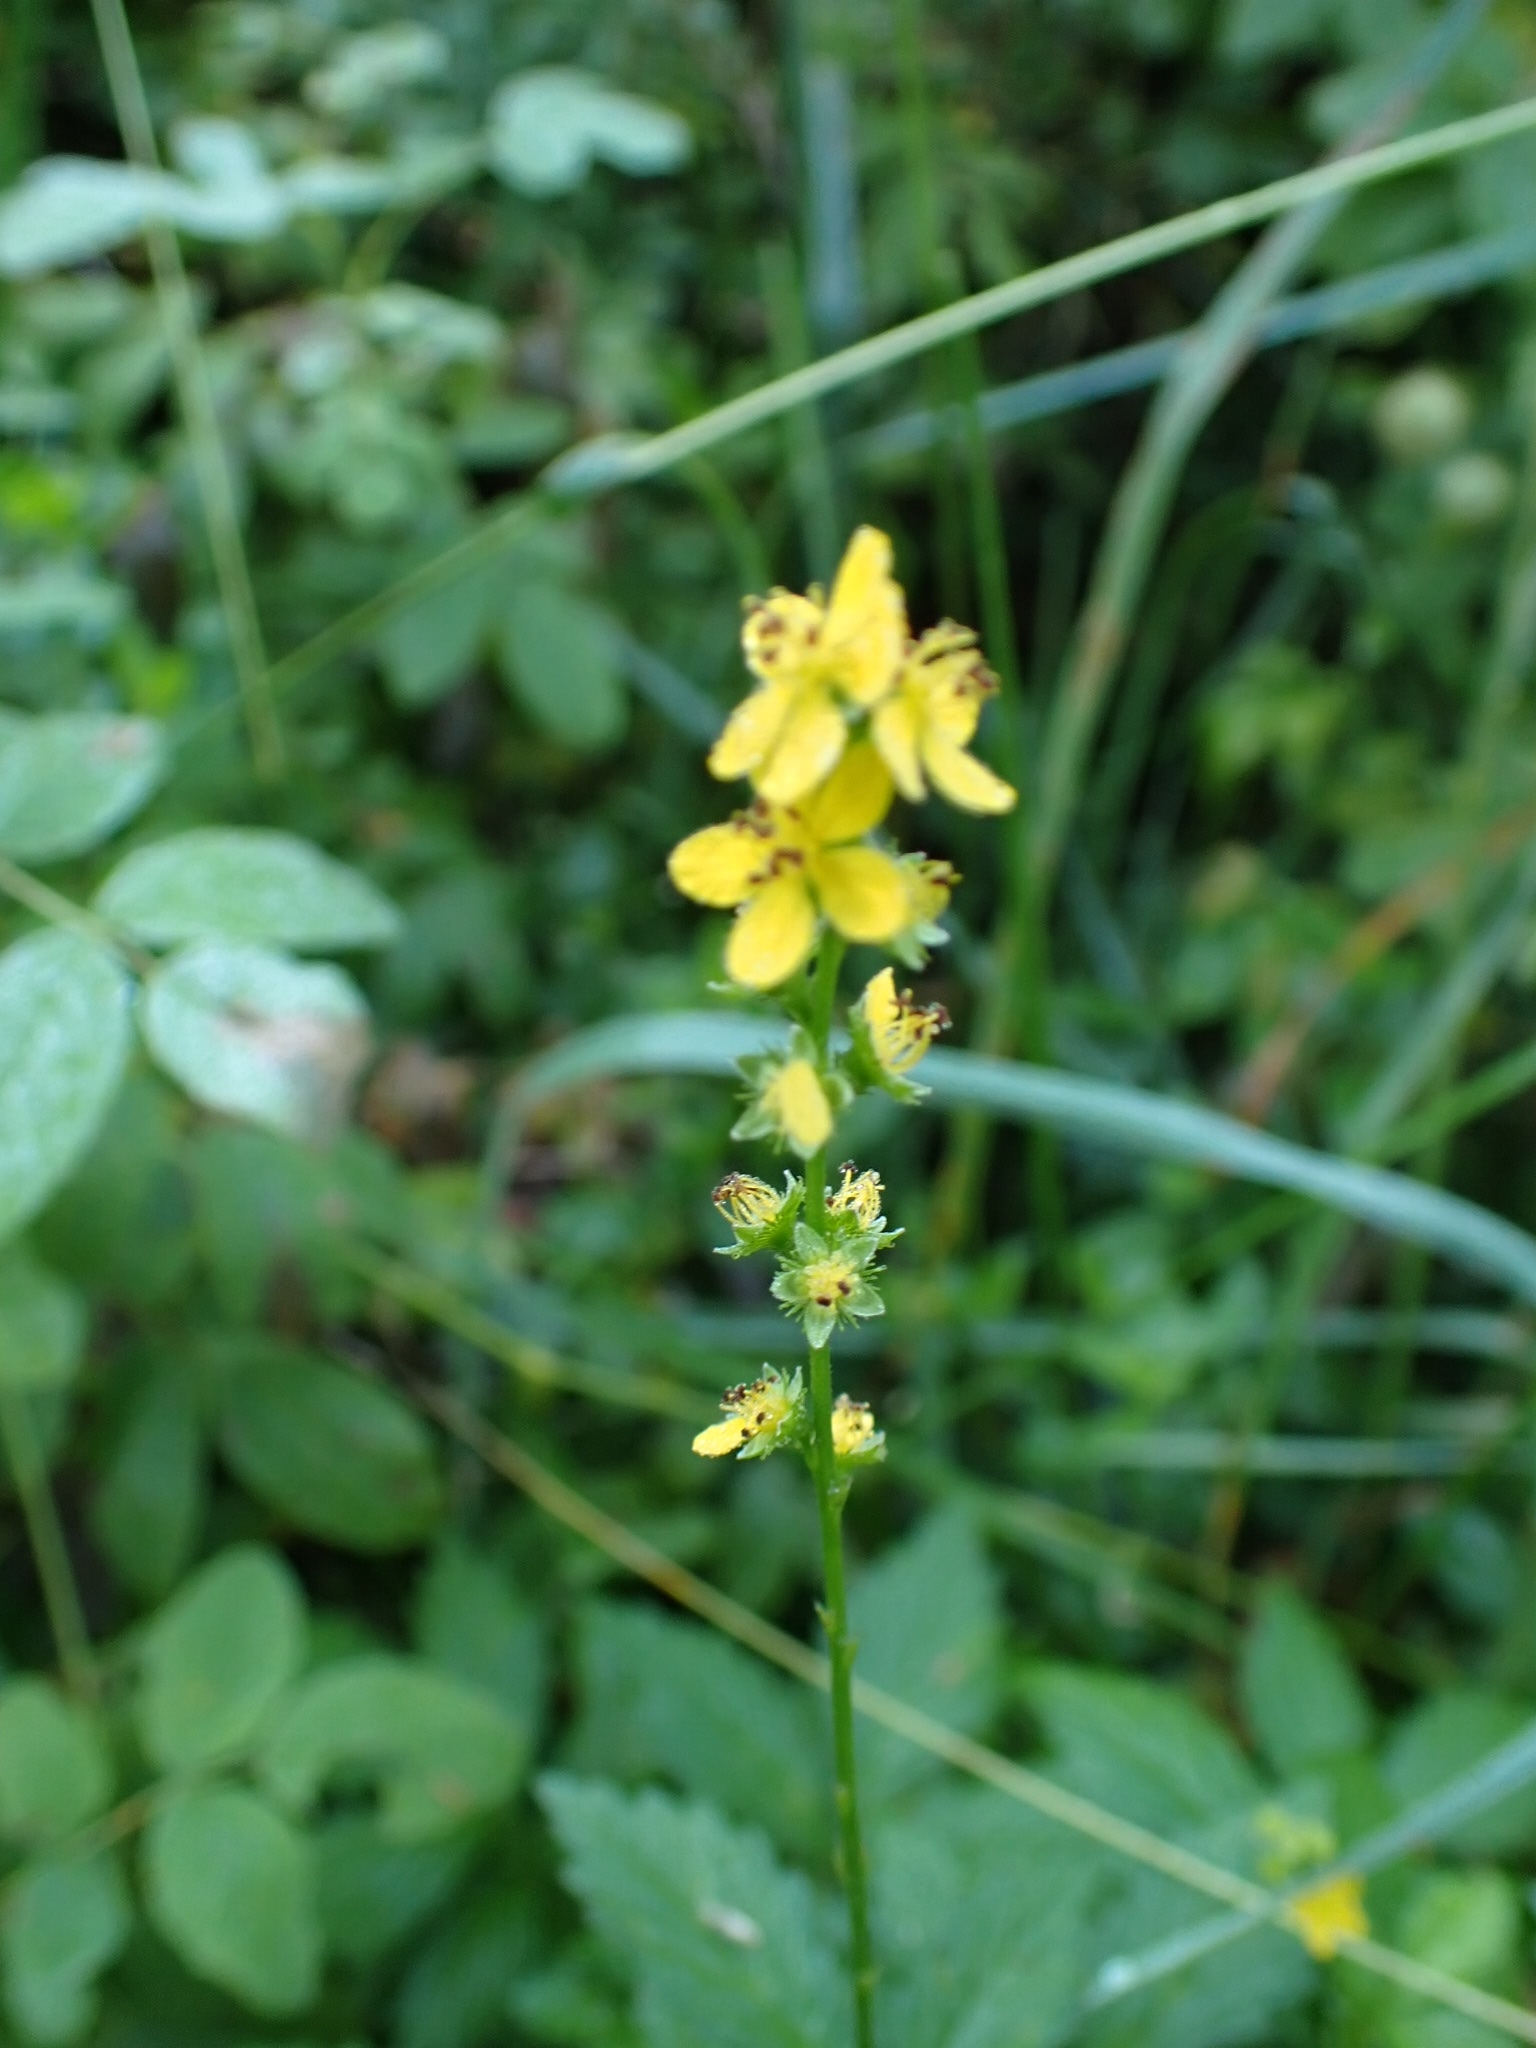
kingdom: Plantae
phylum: Tracheophyta
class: Magnoliopsida
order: Rosales
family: Rosaceae
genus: Agrimonia
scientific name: Agrimonia pilosa
